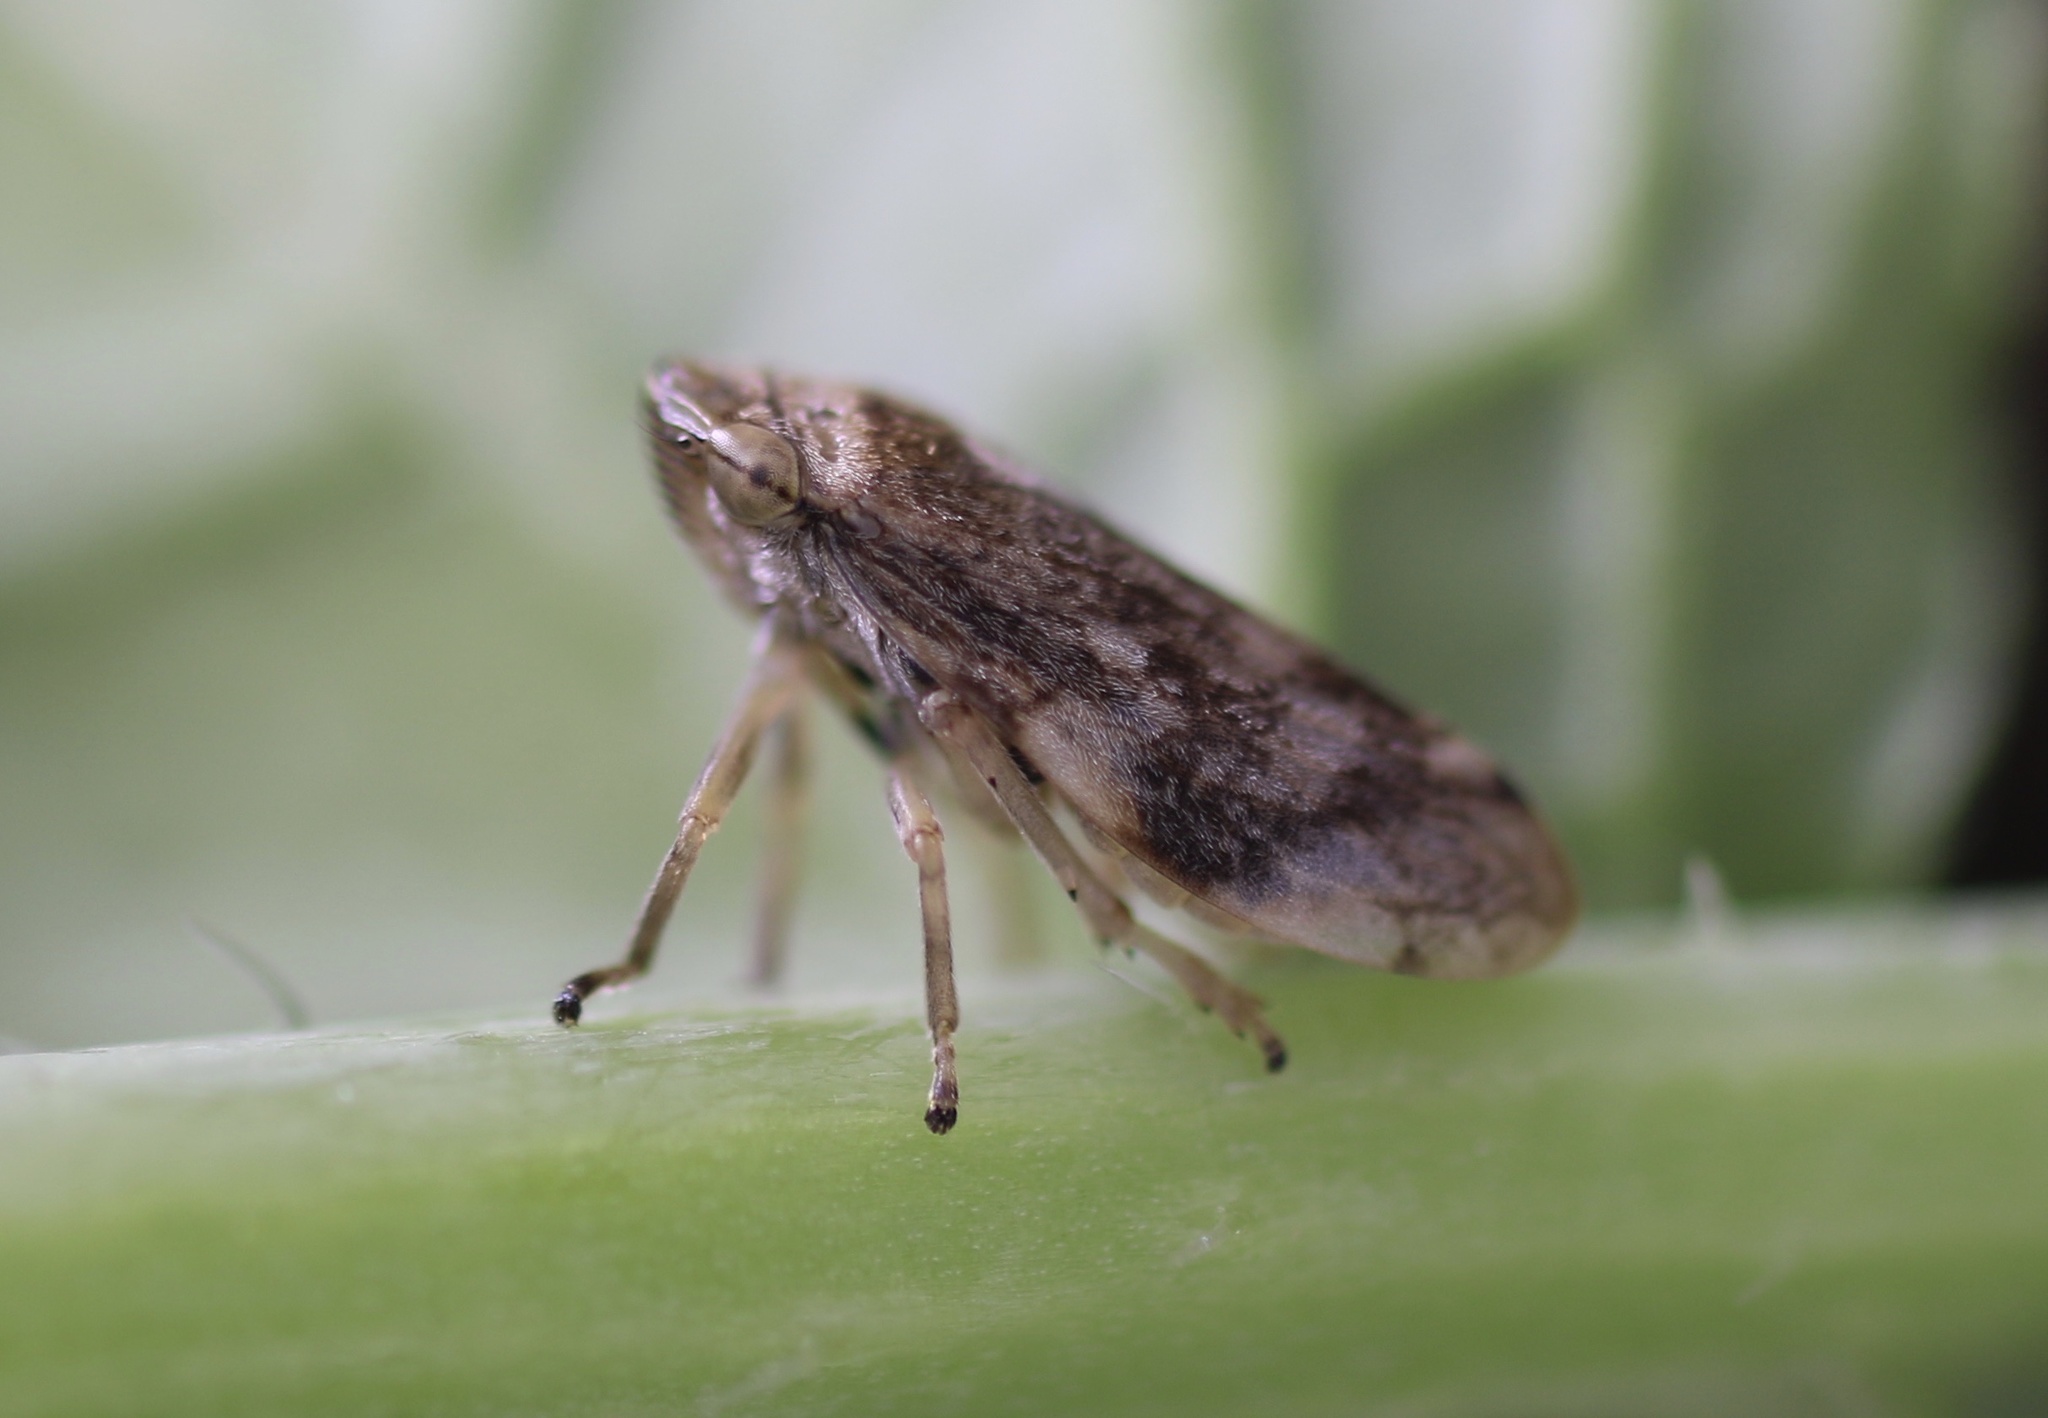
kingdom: Animalia
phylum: Arthropoda
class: Insecta
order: Hemiptera
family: Aphrophoridae
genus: Philaenus
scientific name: Philaenus spumarius
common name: Meadow spittlebug
